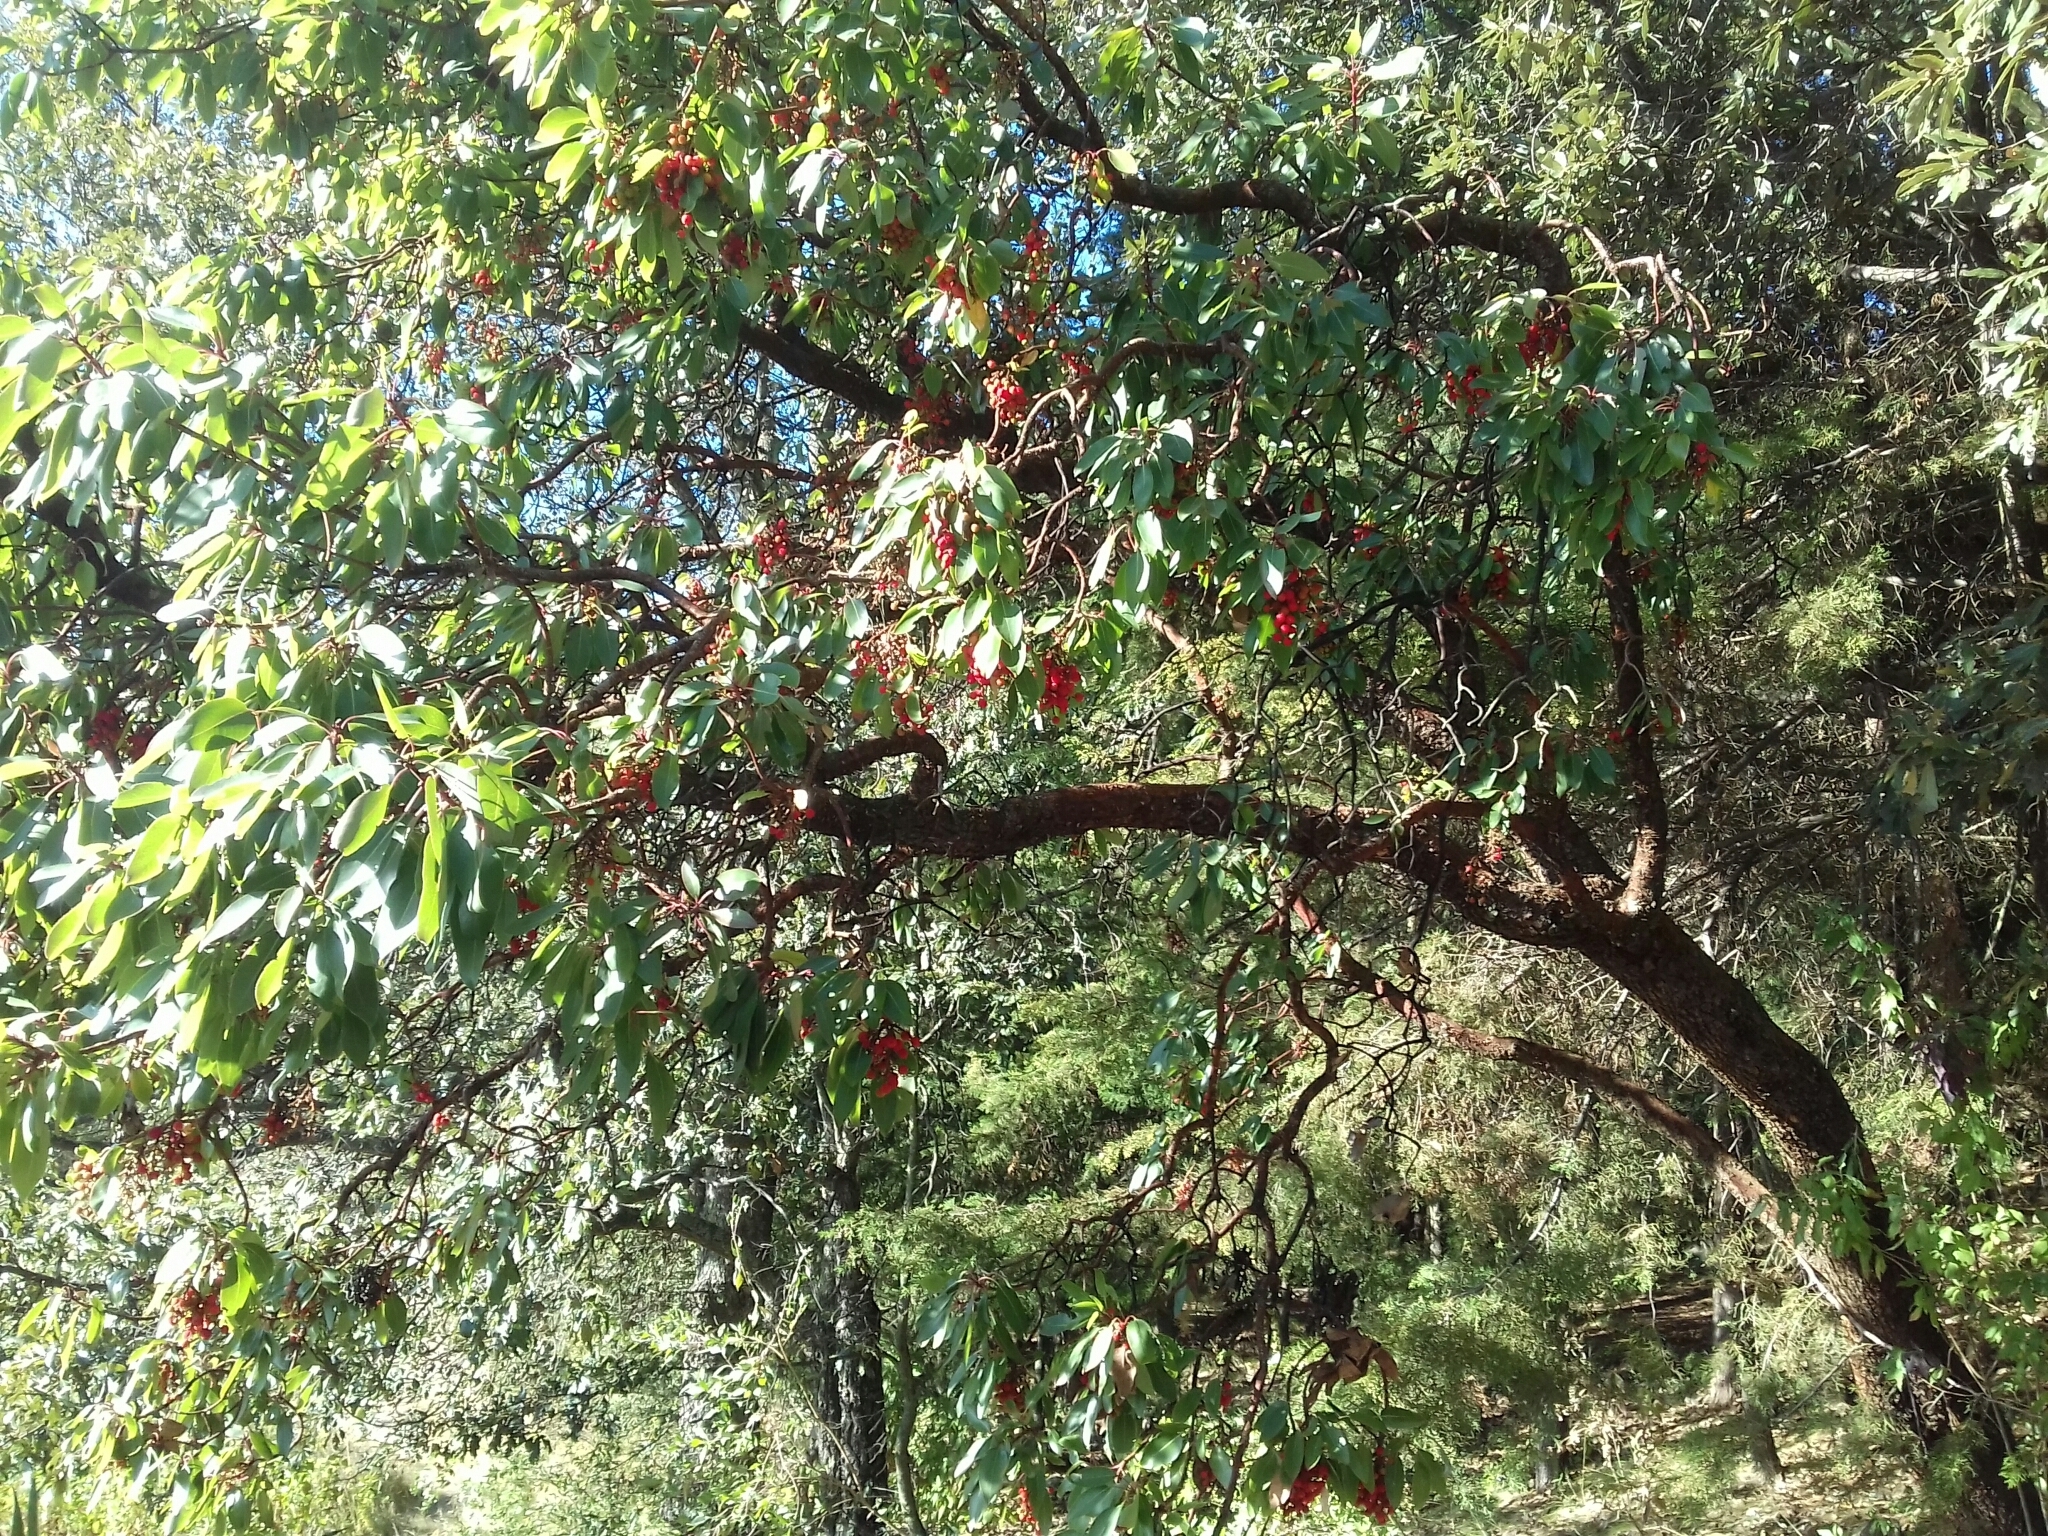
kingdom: Plantae
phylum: Tracheophyta
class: Magnoliopsida
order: Ericales
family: Ericaceae
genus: Arbutus
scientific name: Arbutus xalapensis
